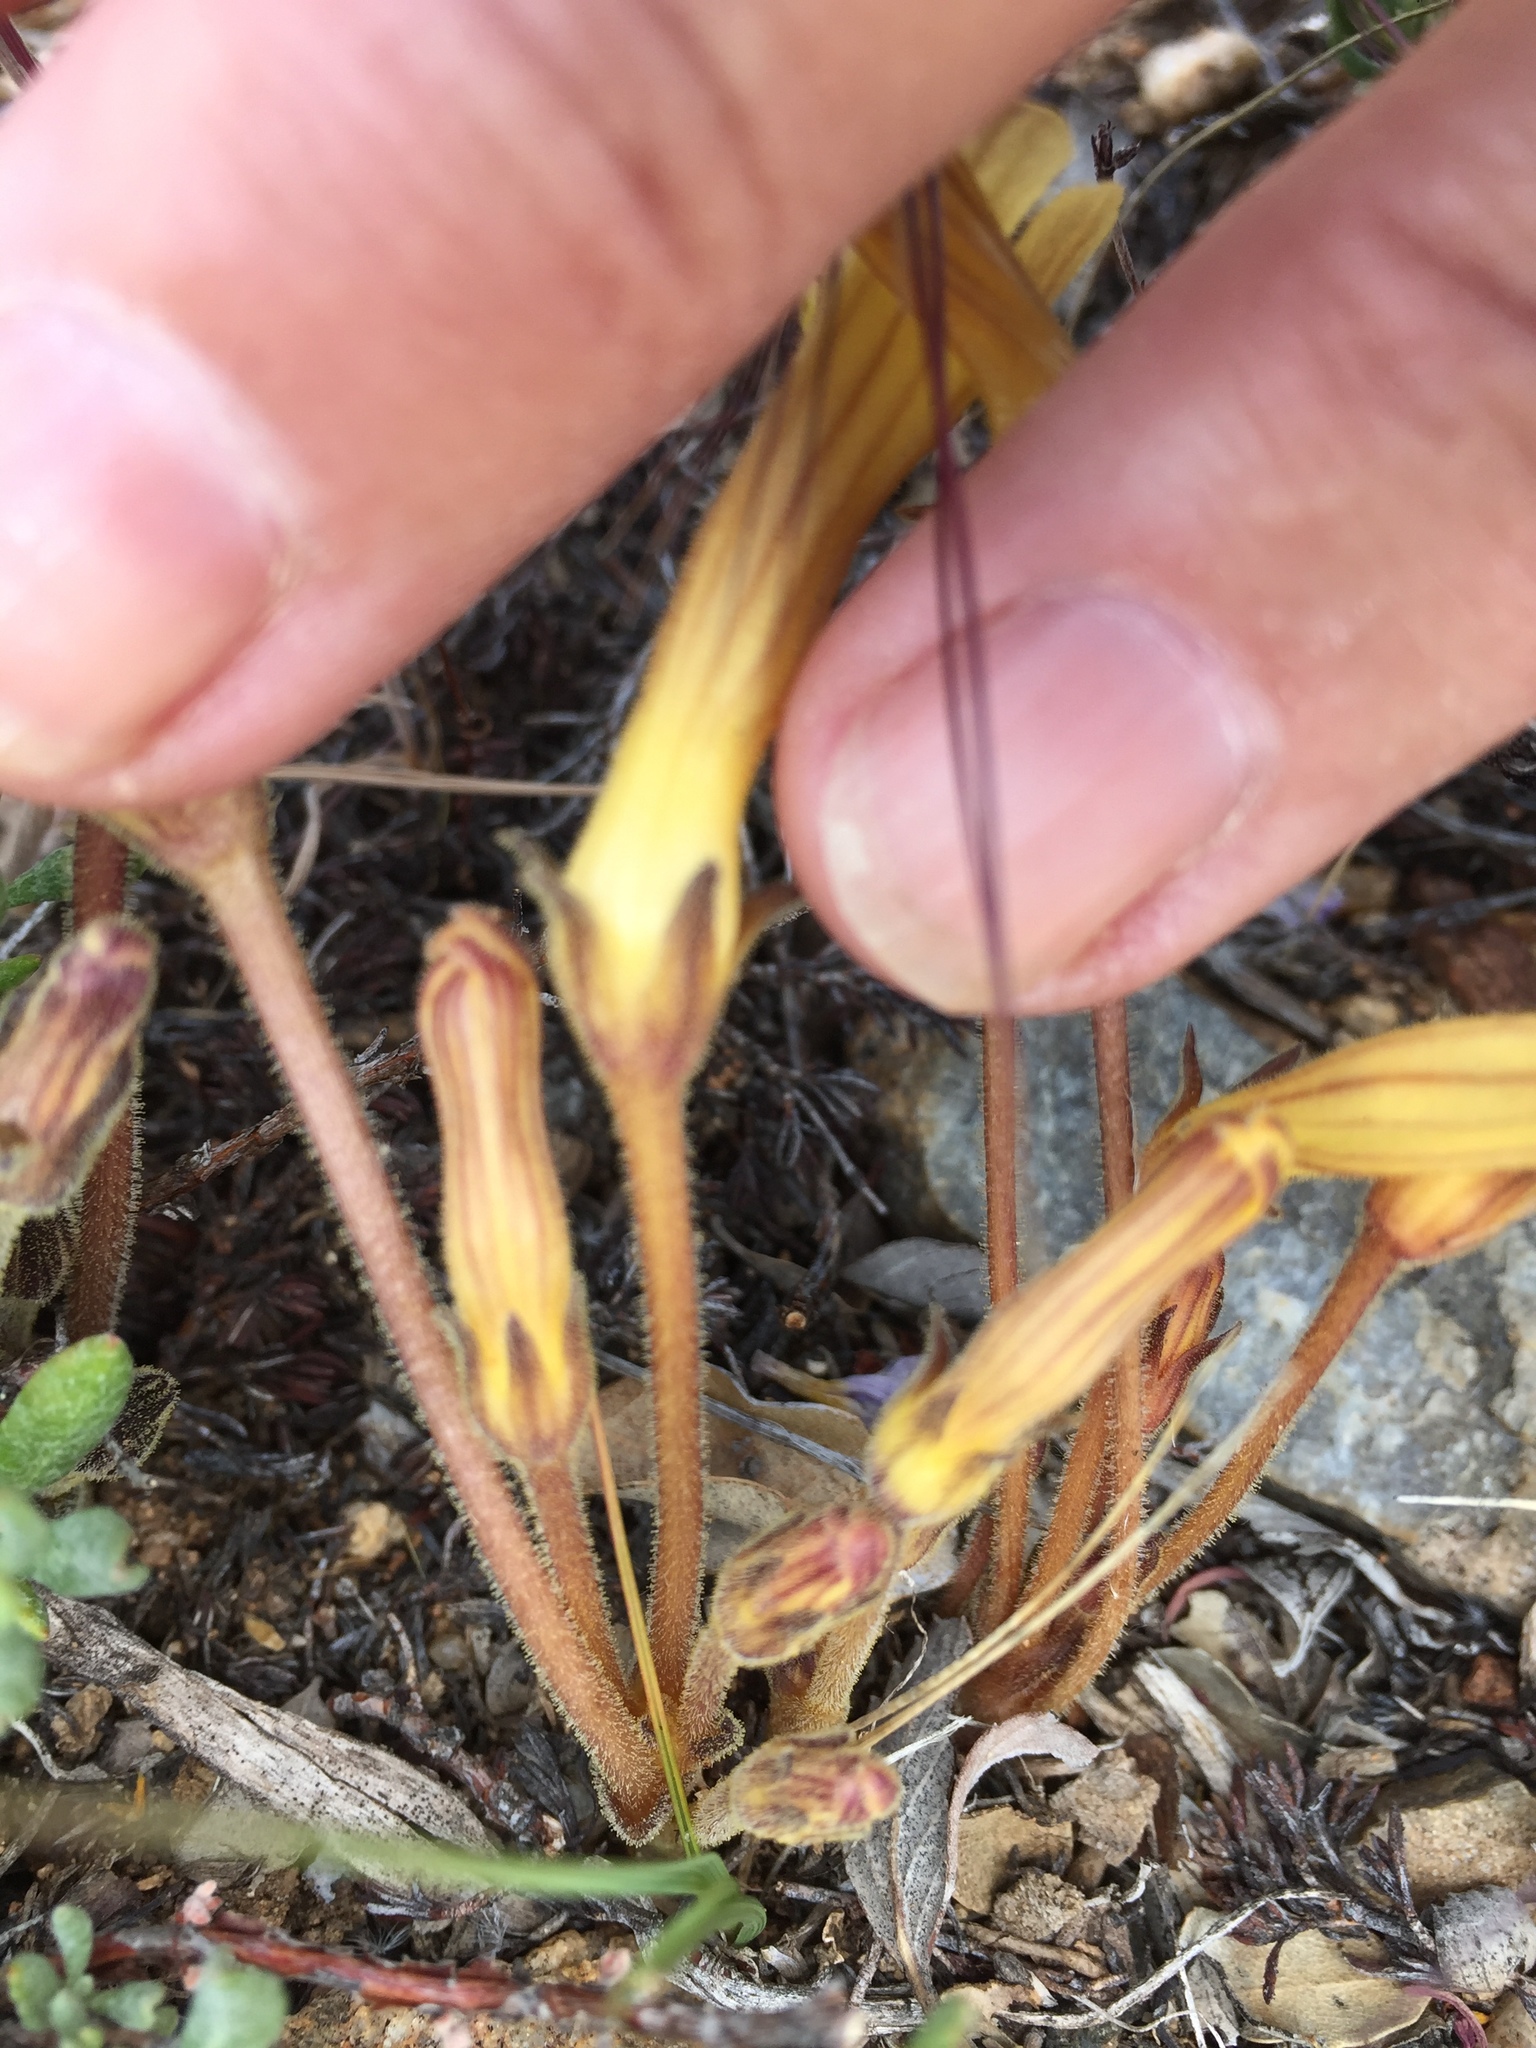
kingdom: Plantae
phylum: Tracheophyta
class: Magnoliopsida
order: Lamiales
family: Orobanchaceae
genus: Aphyllon
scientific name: Aphyllon franciscanum
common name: San francisco broomrape
